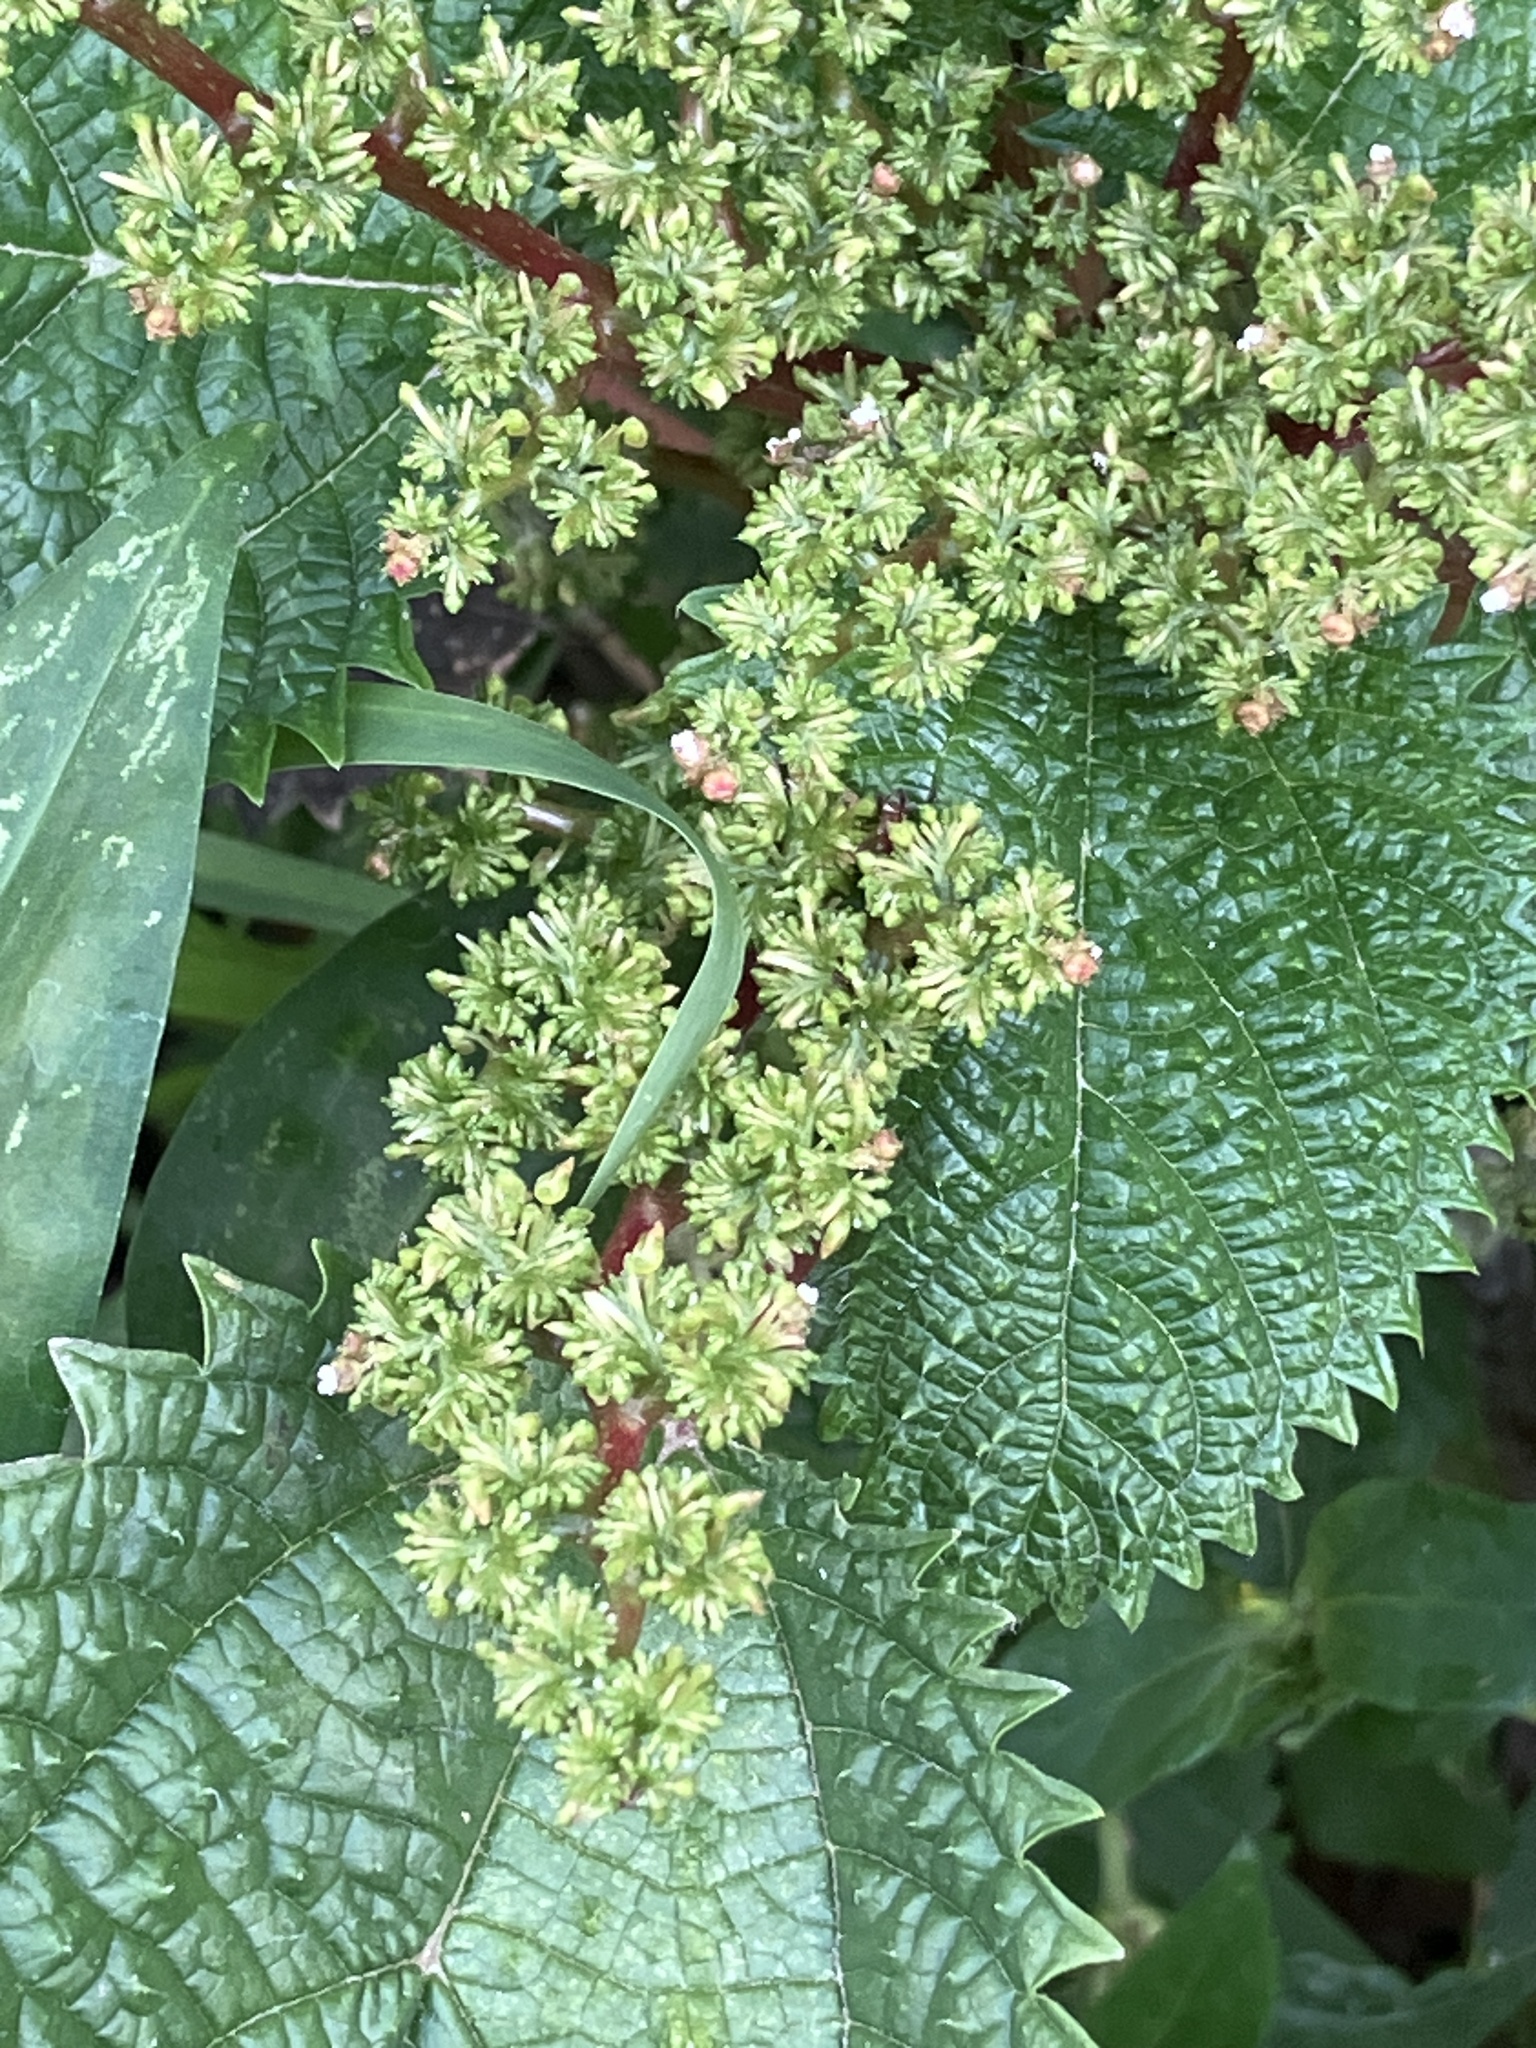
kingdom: Plantae
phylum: Tracheophyta
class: Magnoliopsida
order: Rosales
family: Urticaceae
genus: Laportea
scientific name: Laportea aestuans
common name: West indian woodnettle
